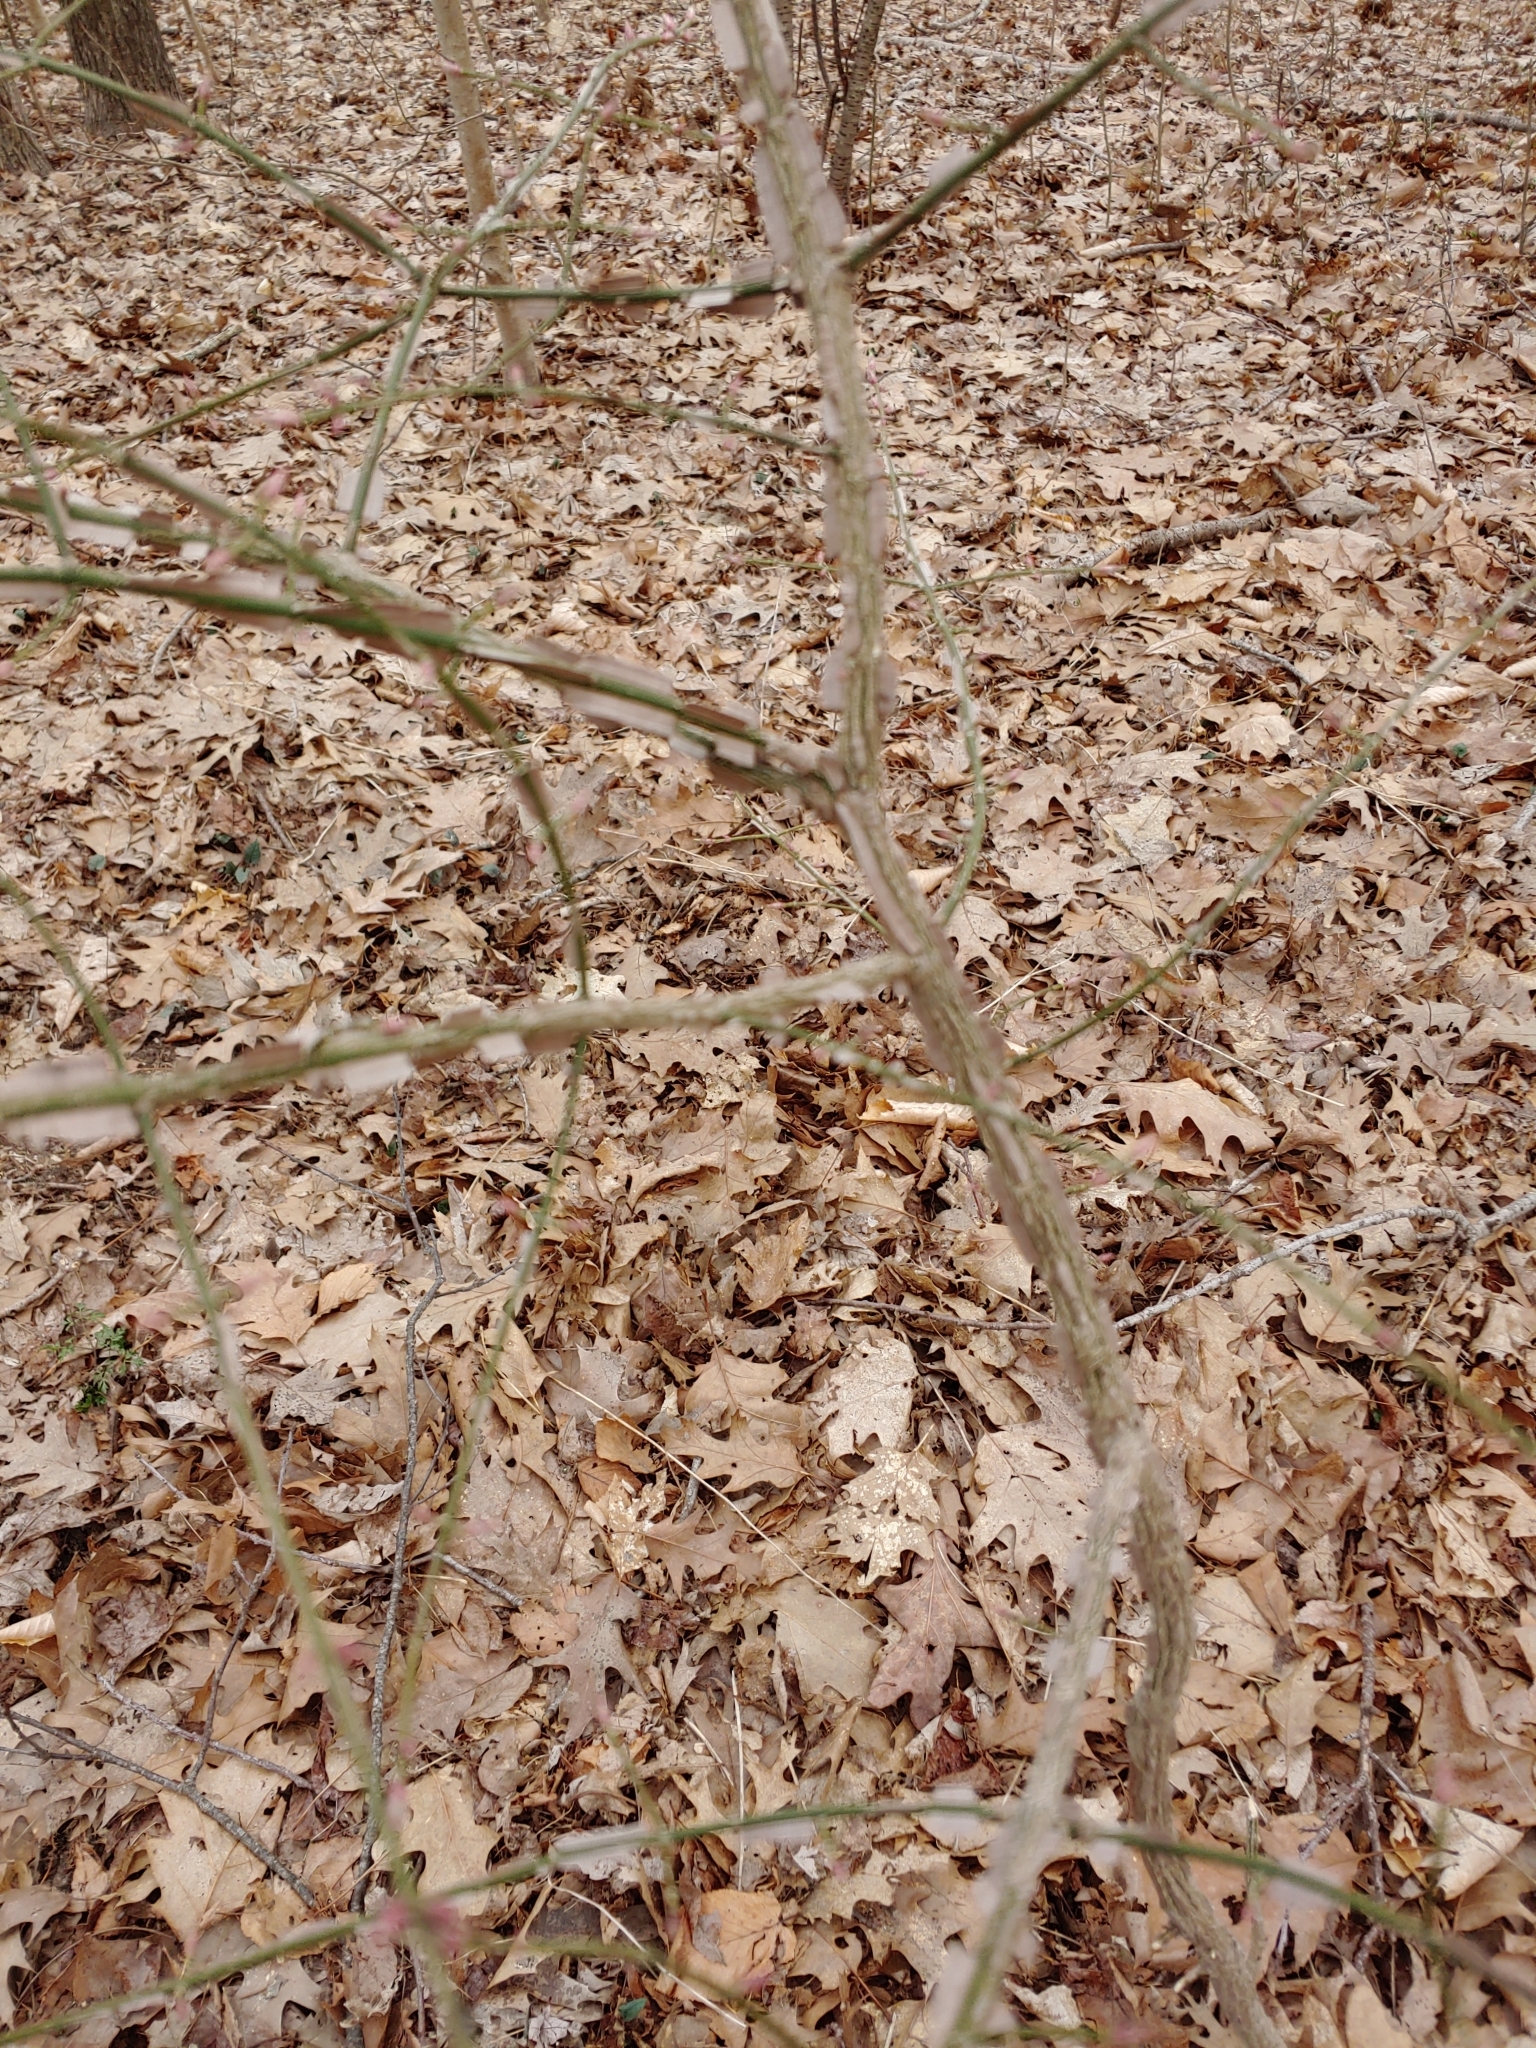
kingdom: Plantae
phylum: Tracheophyta
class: Magnoliopsida
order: Celastrales
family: Celastraceae
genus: Euonymus
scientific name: Euonymus alatus
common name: Winged euonymus
